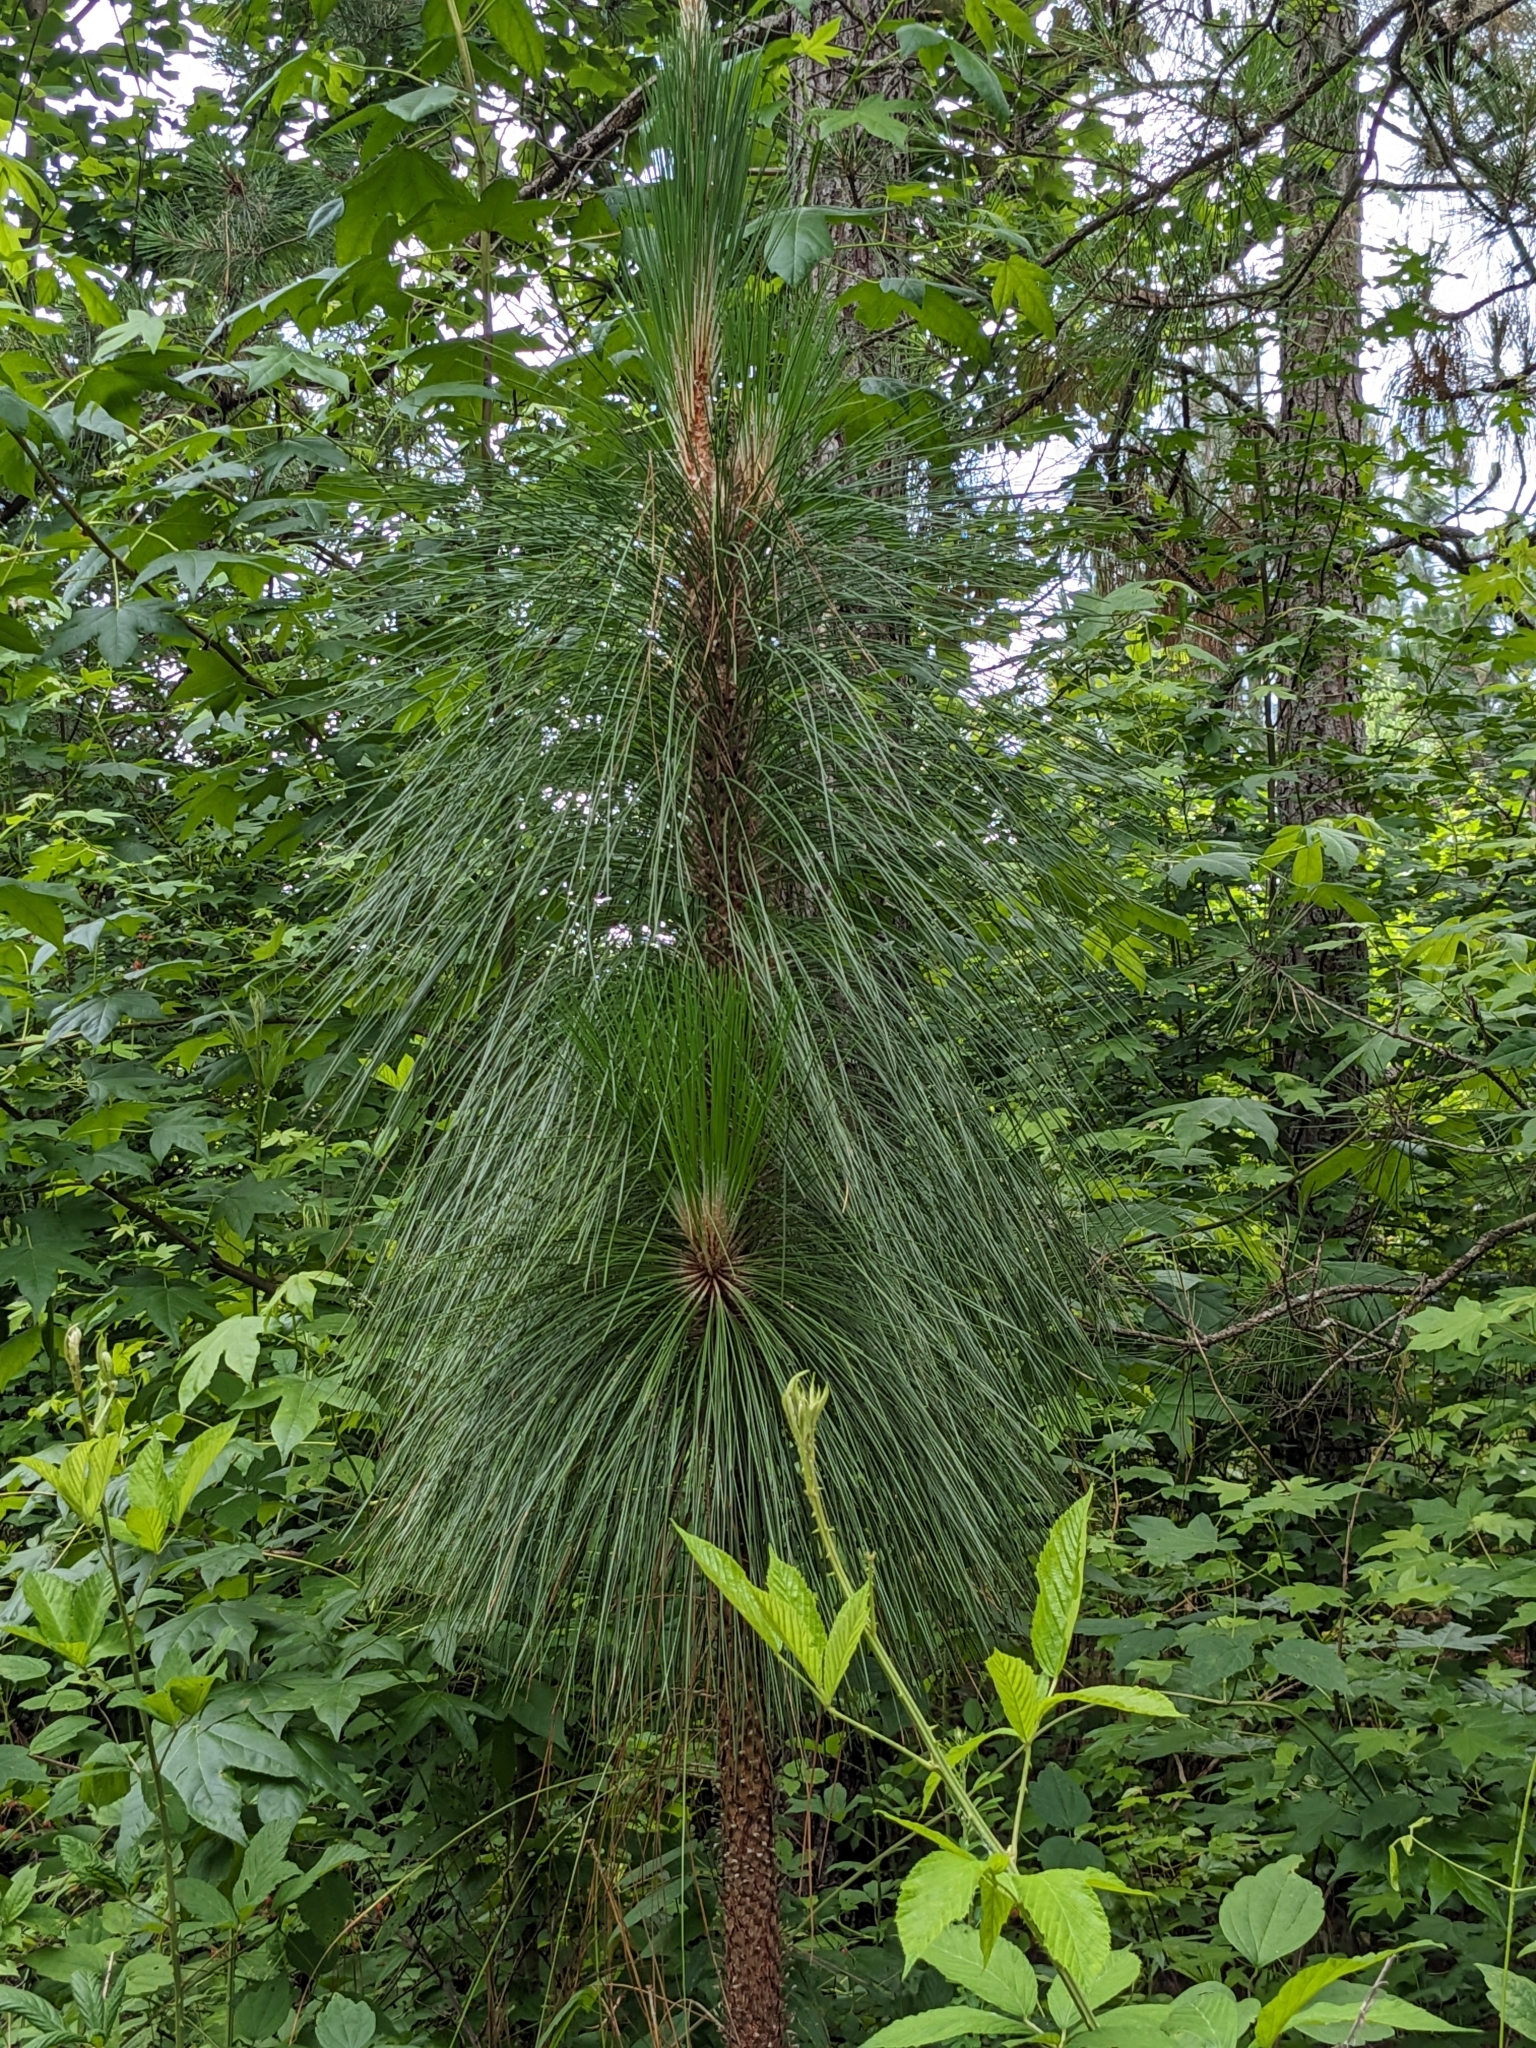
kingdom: Plantae
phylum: Tracheophyta
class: Pinopsida
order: Pinales
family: Pinaceae
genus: Pinus
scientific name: Pinus palustris
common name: Longleaf pine
